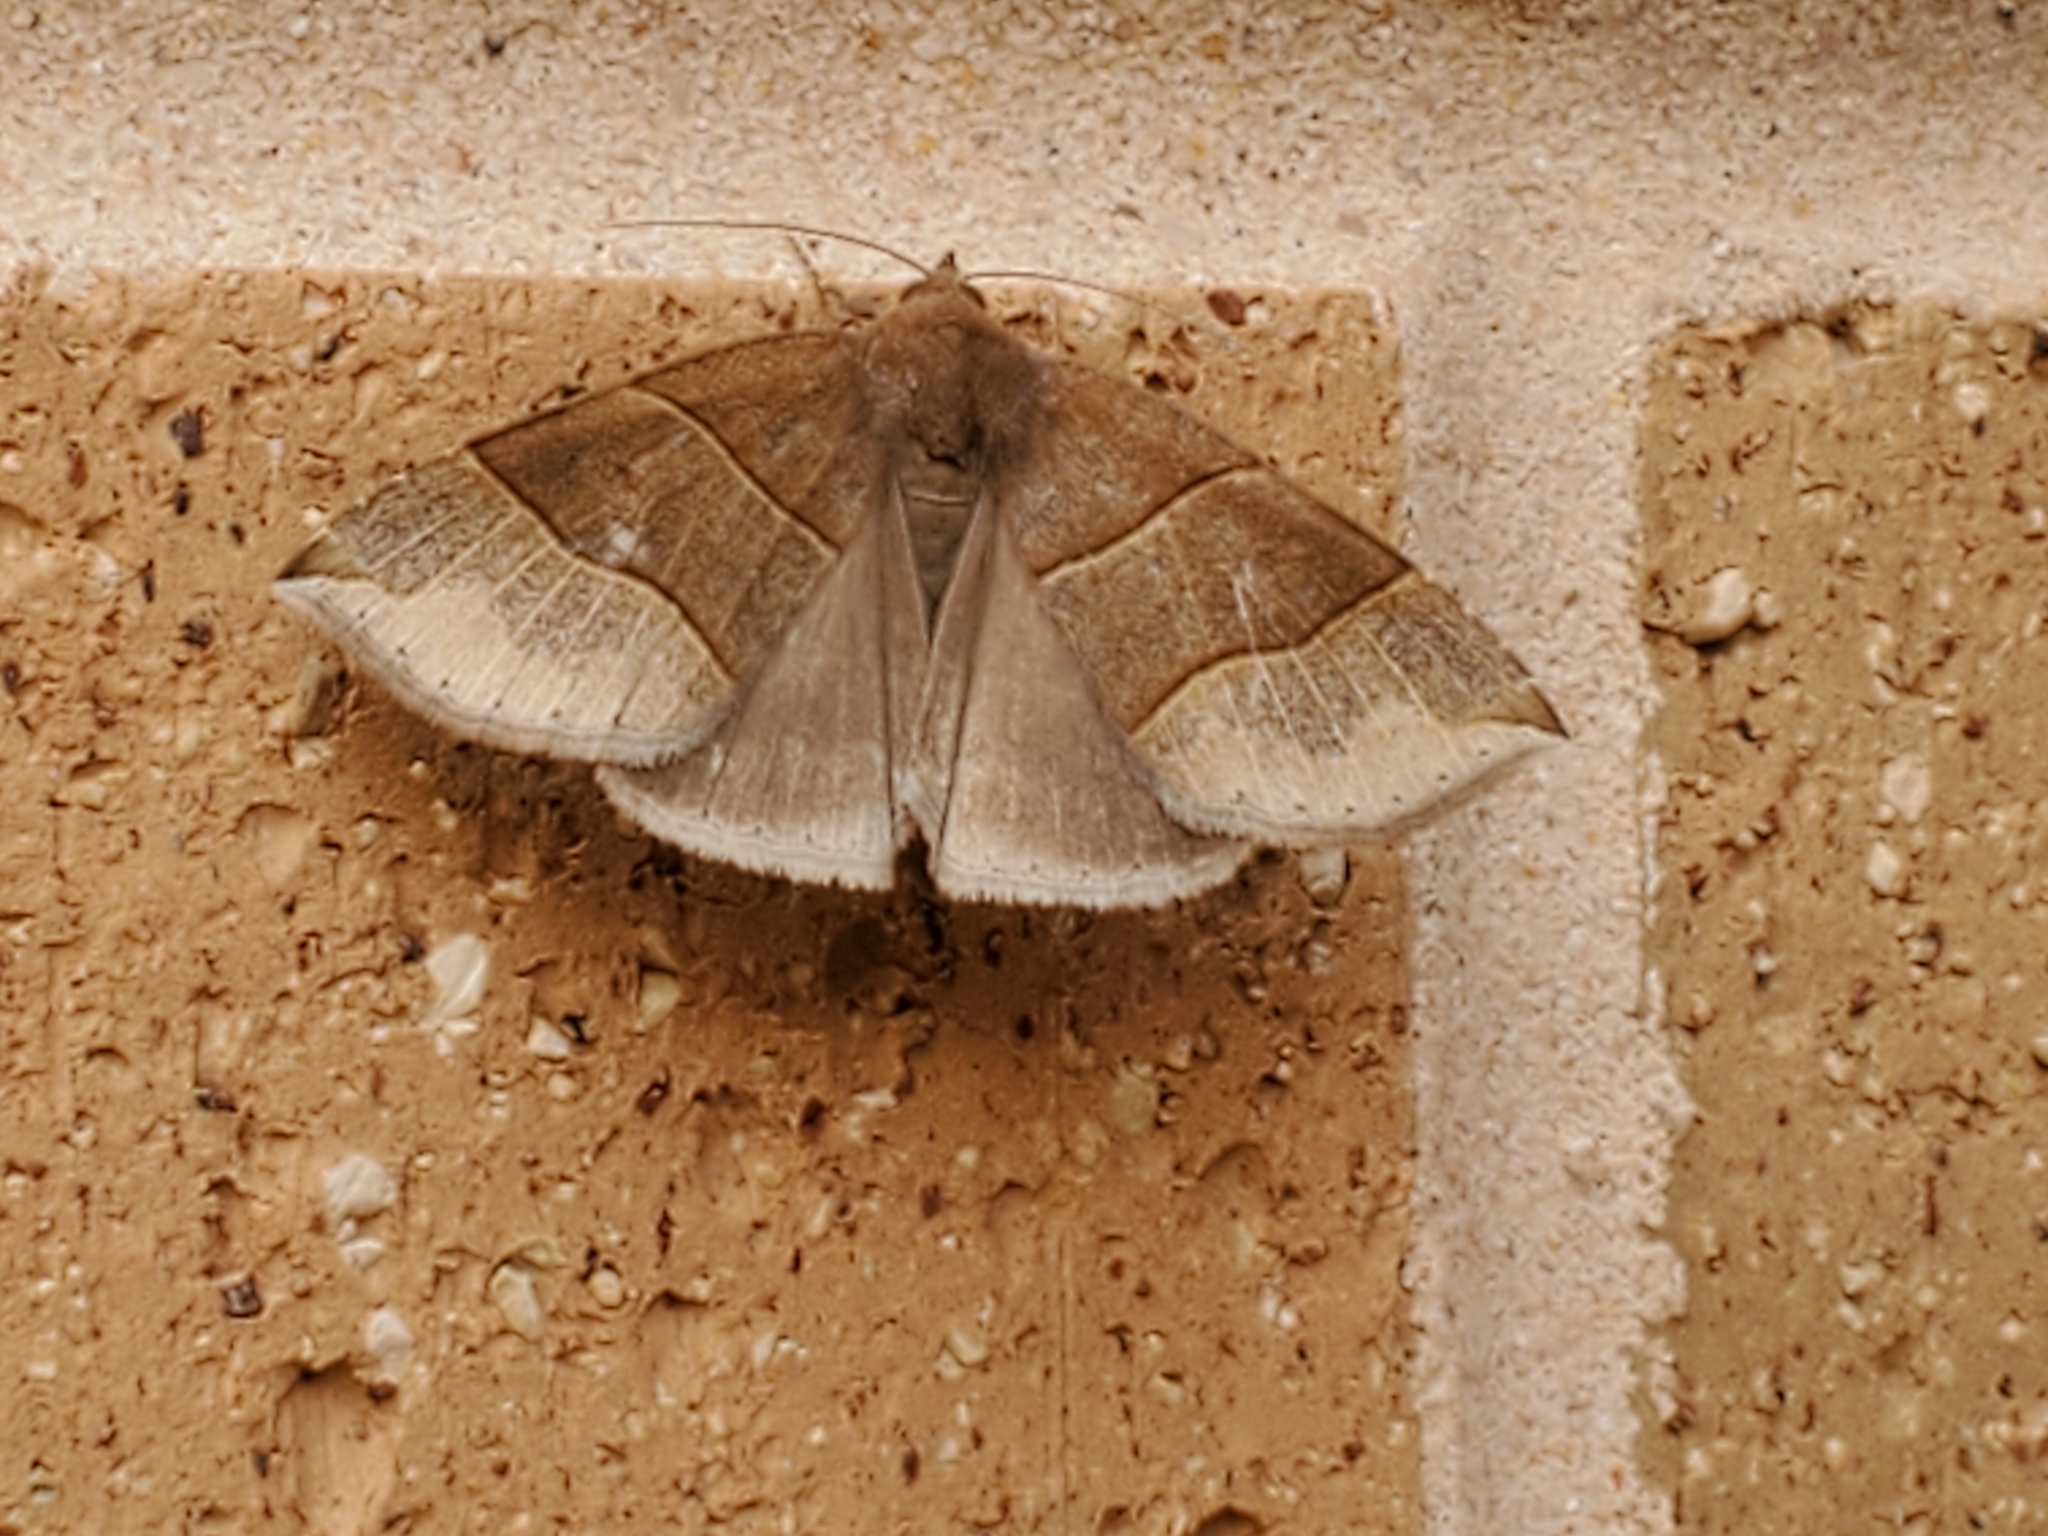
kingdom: Animalia
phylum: Arthropoda
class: Insecta
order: Lepidoptera
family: Erebidae
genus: Parallelia
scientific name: Parallelia bistriaris
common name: Maple looper moth
